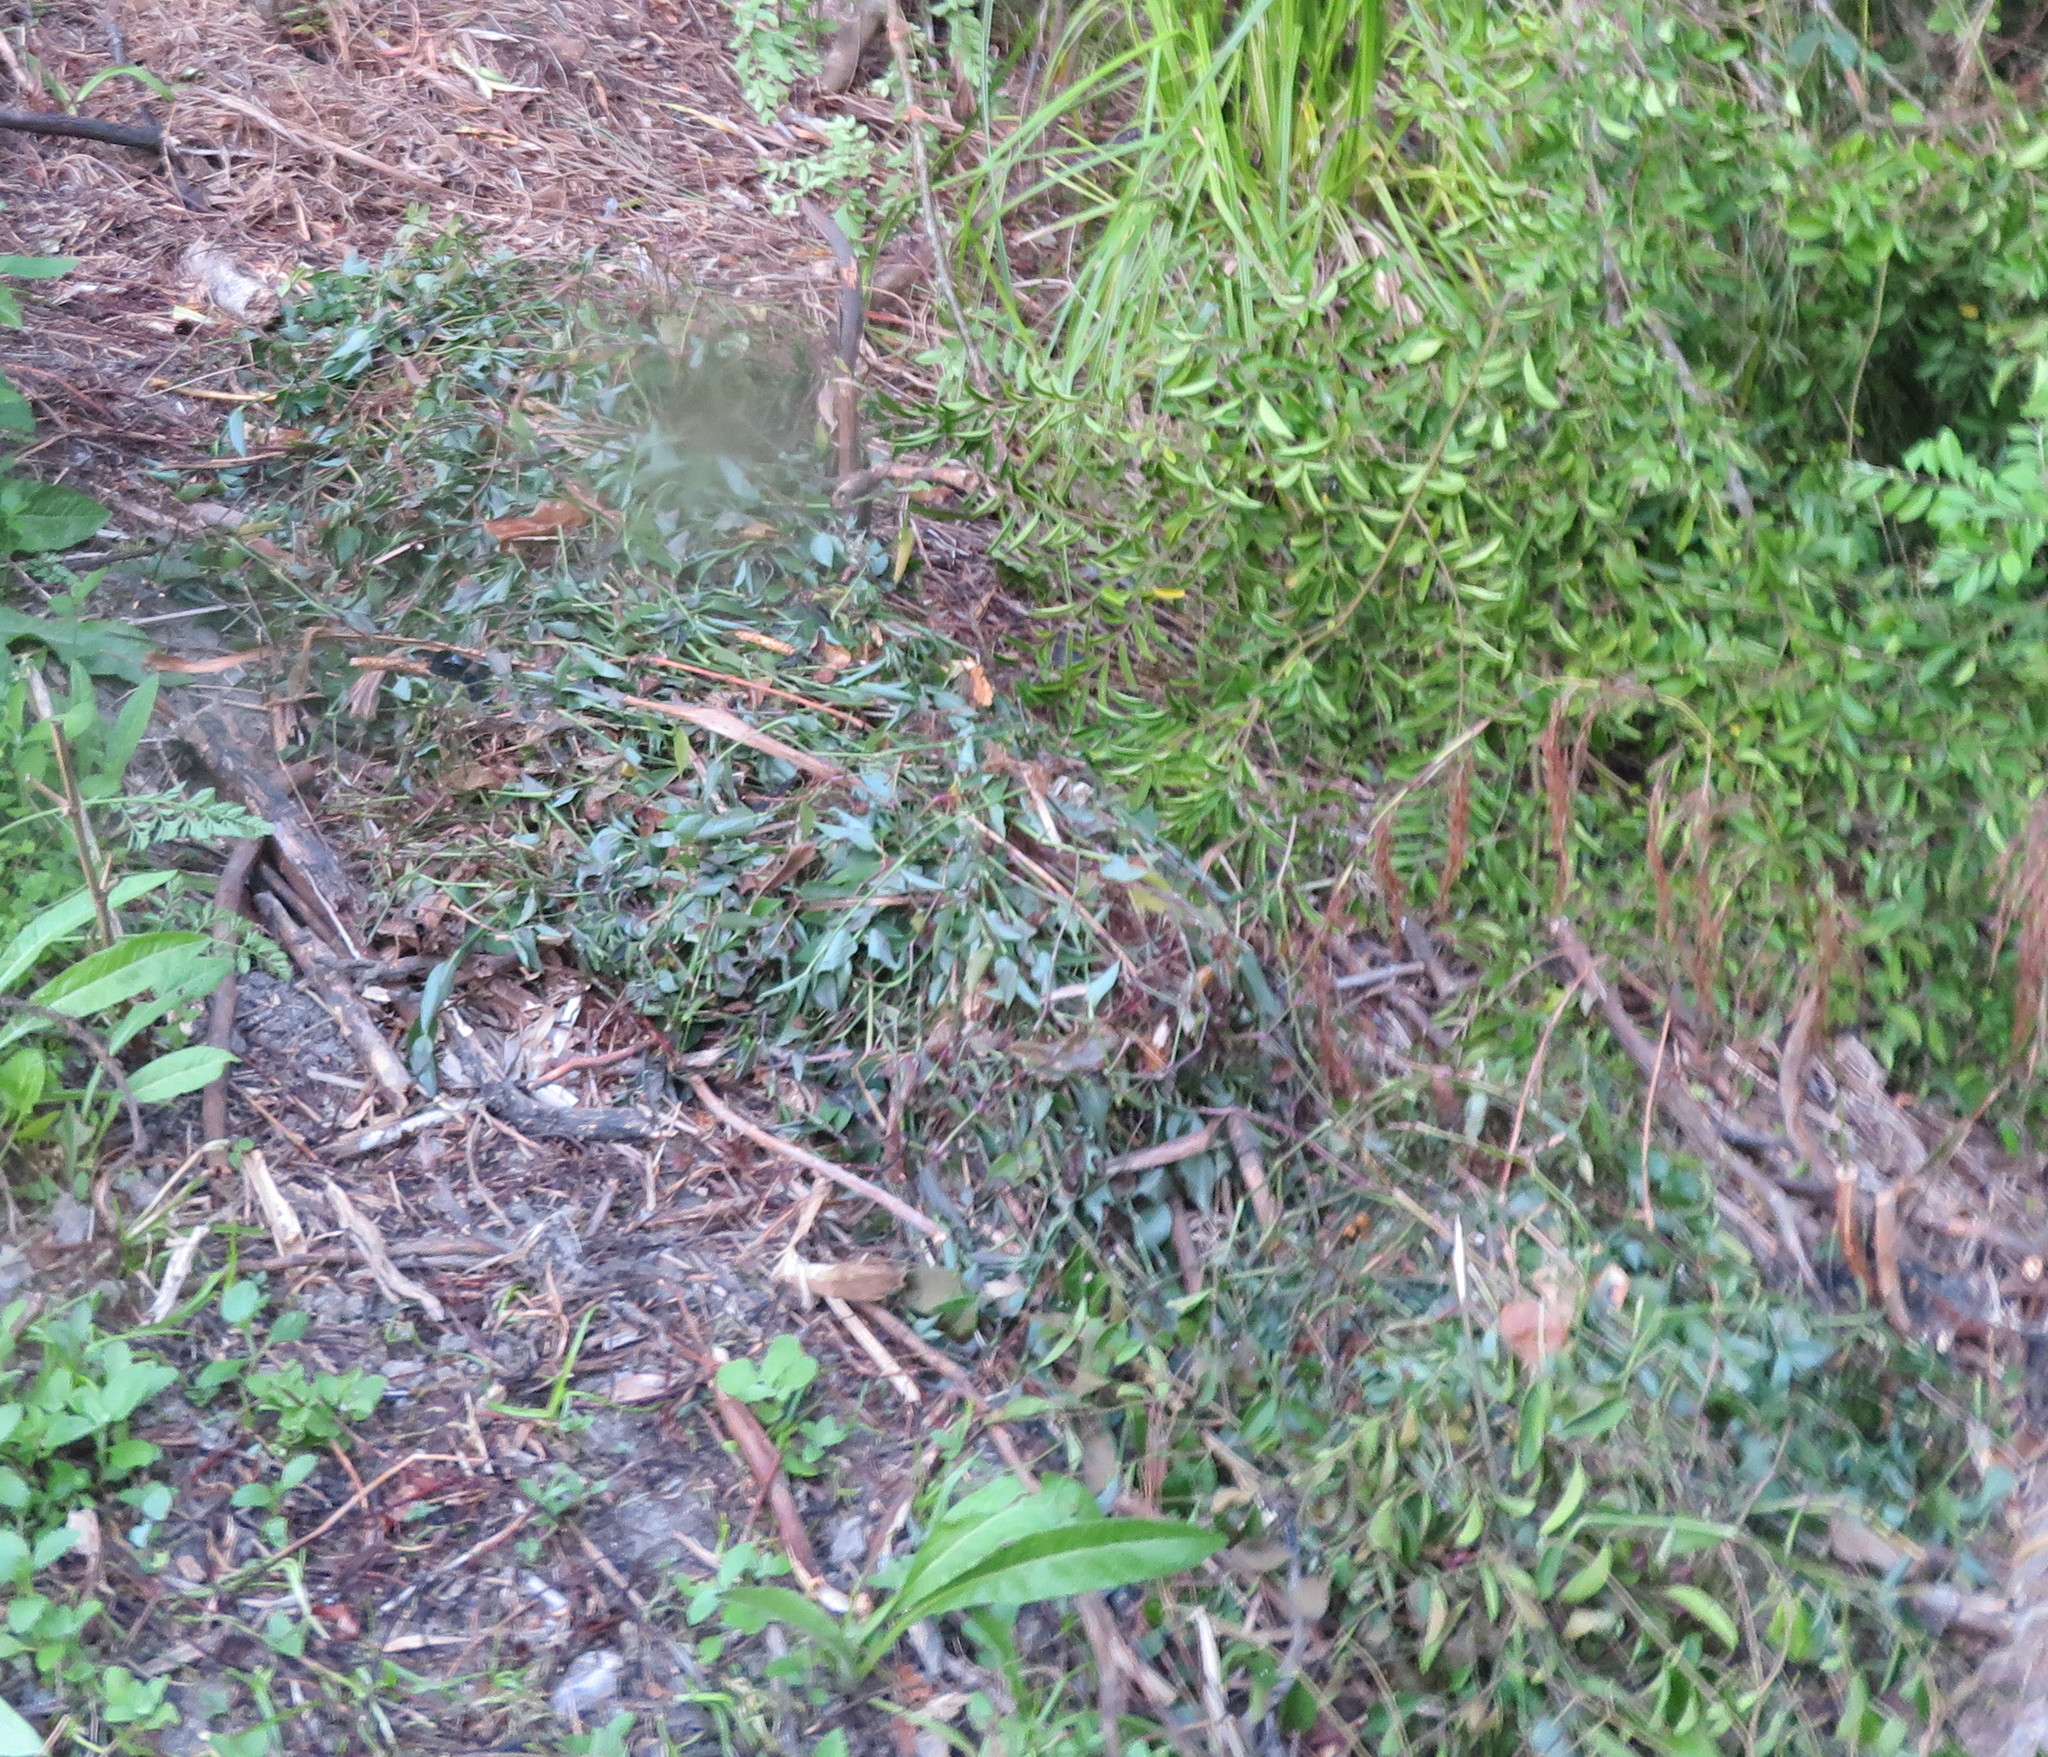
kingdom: Plantae
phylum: Tracheophyta
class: Liliopsida
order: Commelinales
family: Commelinaceae
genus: Tradescantia
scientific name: Tradescantia fluminensis
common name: Wandering-jew
